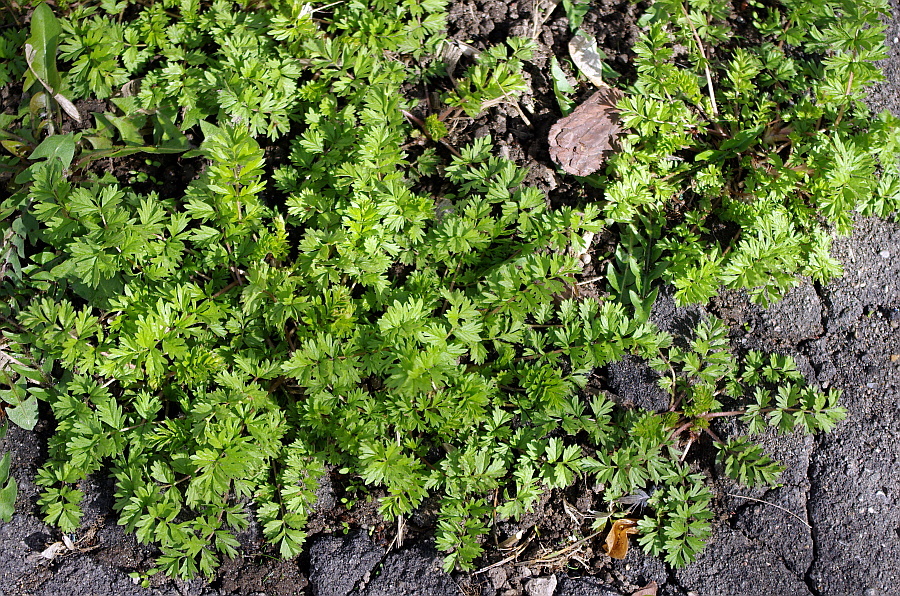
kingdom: Plantae
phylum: Tracheophyta
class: Magnoliopsida
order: Rosales
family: Rosaceae
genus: Potentilla
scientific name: Potentilla supina
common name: Prostrate cinquefoil
